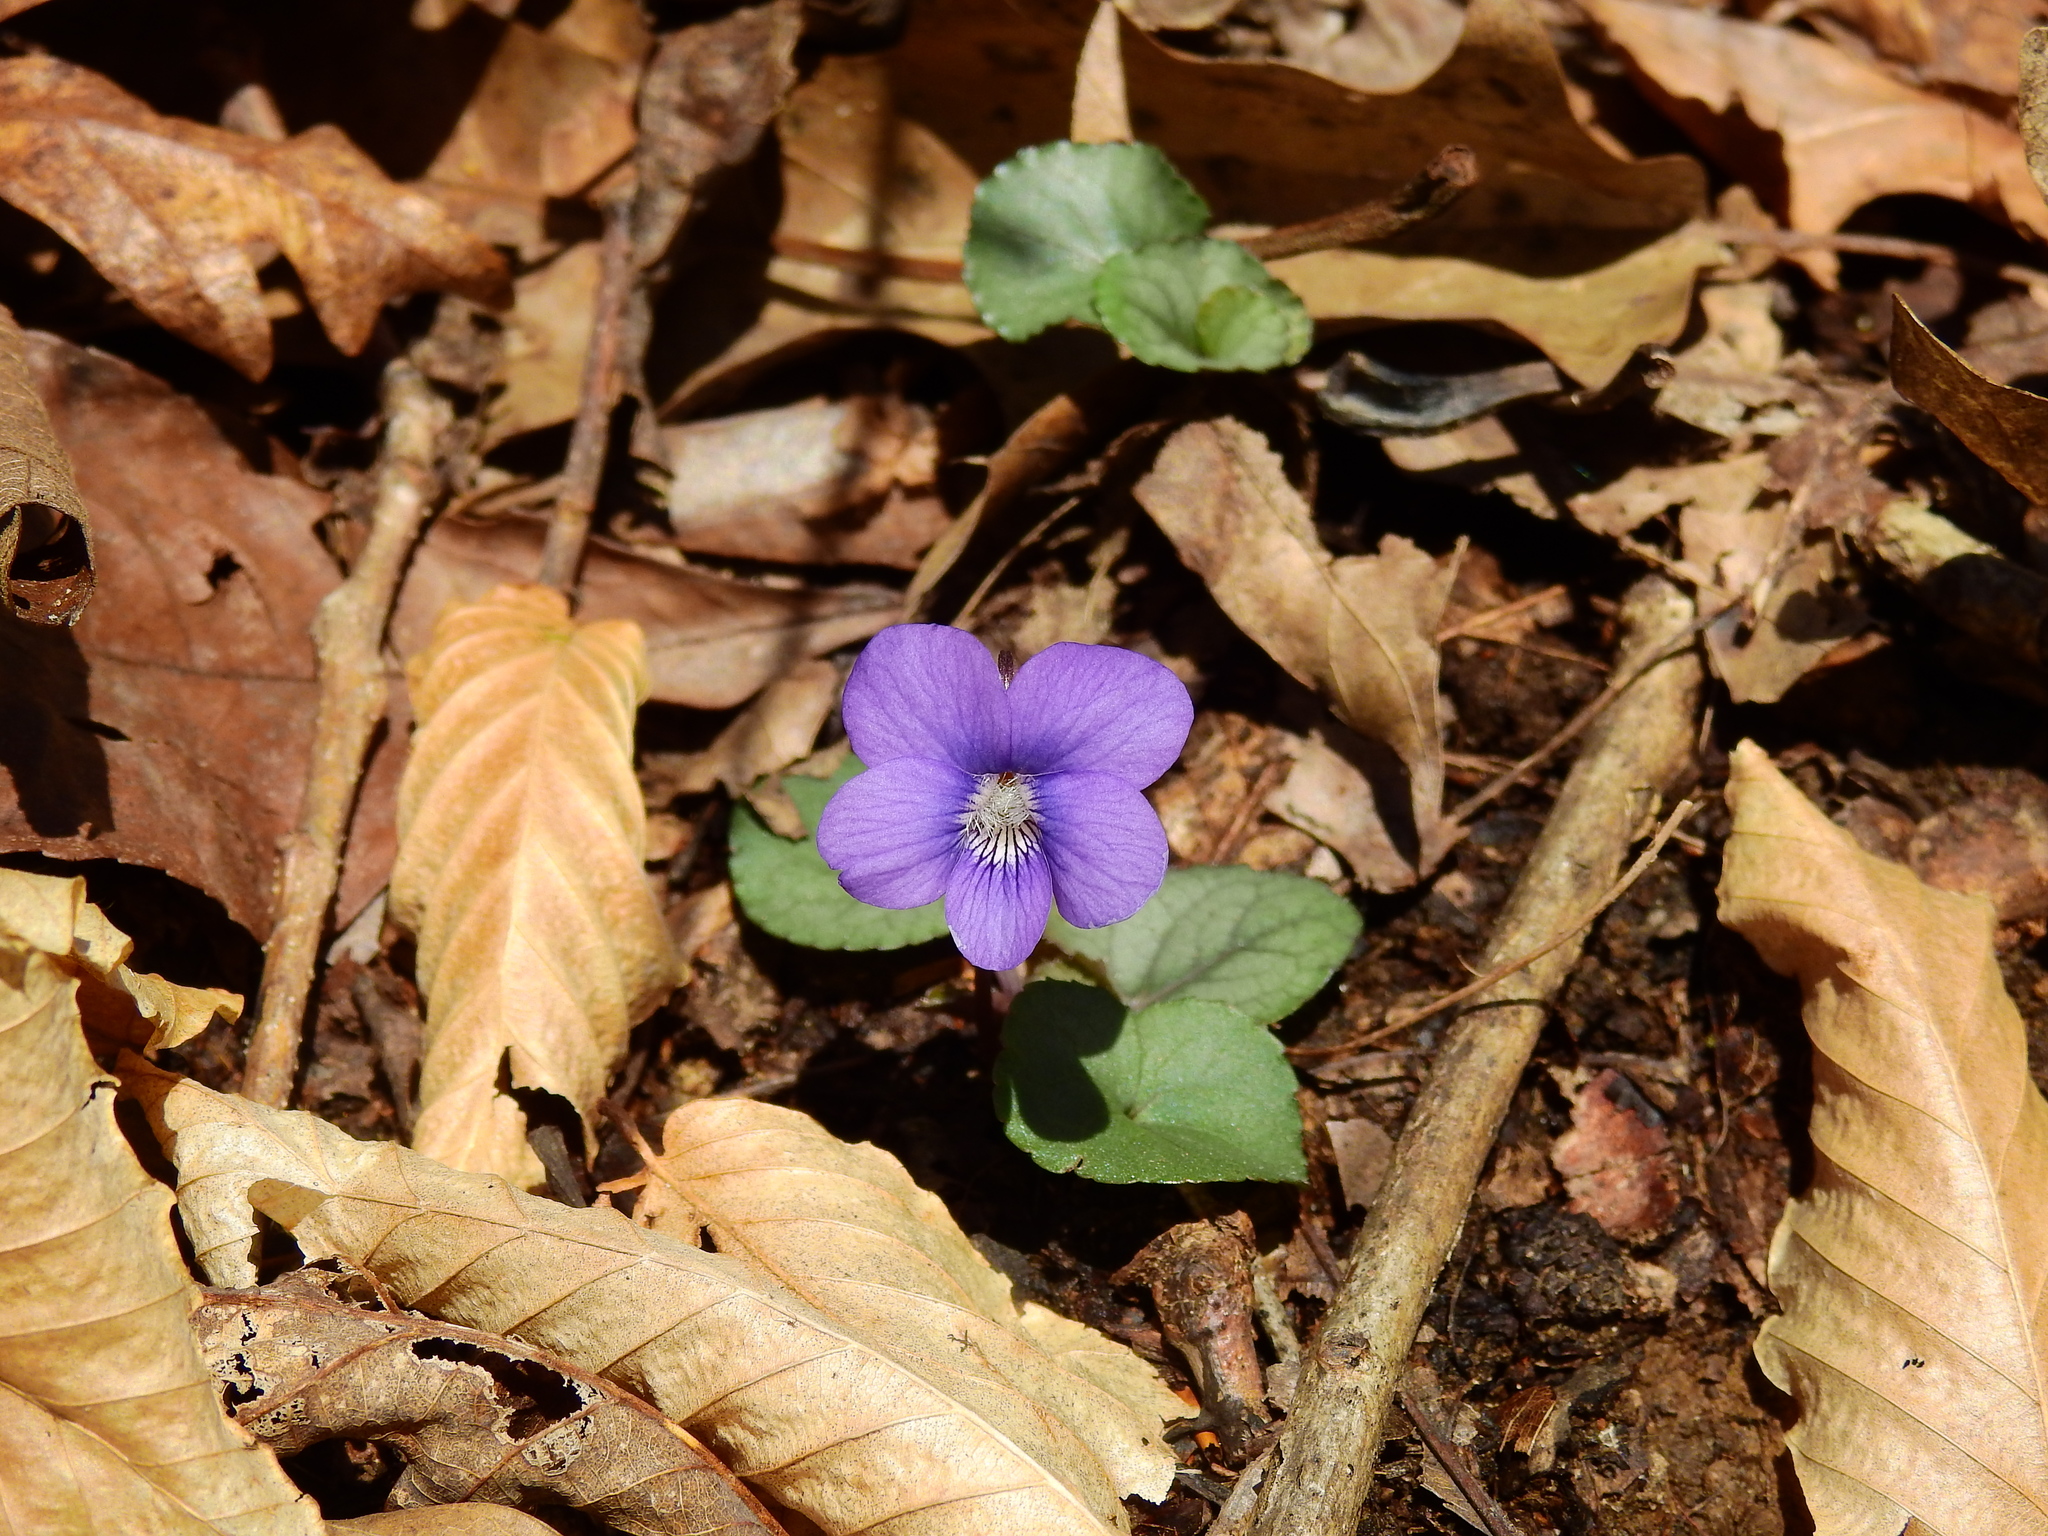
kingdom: Plantae
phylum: Tracheophyta
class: Magnoliopsida
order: Malpighiales
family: Violaceae
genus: Viola
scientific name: Viola sororia
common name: Dooryard violet
